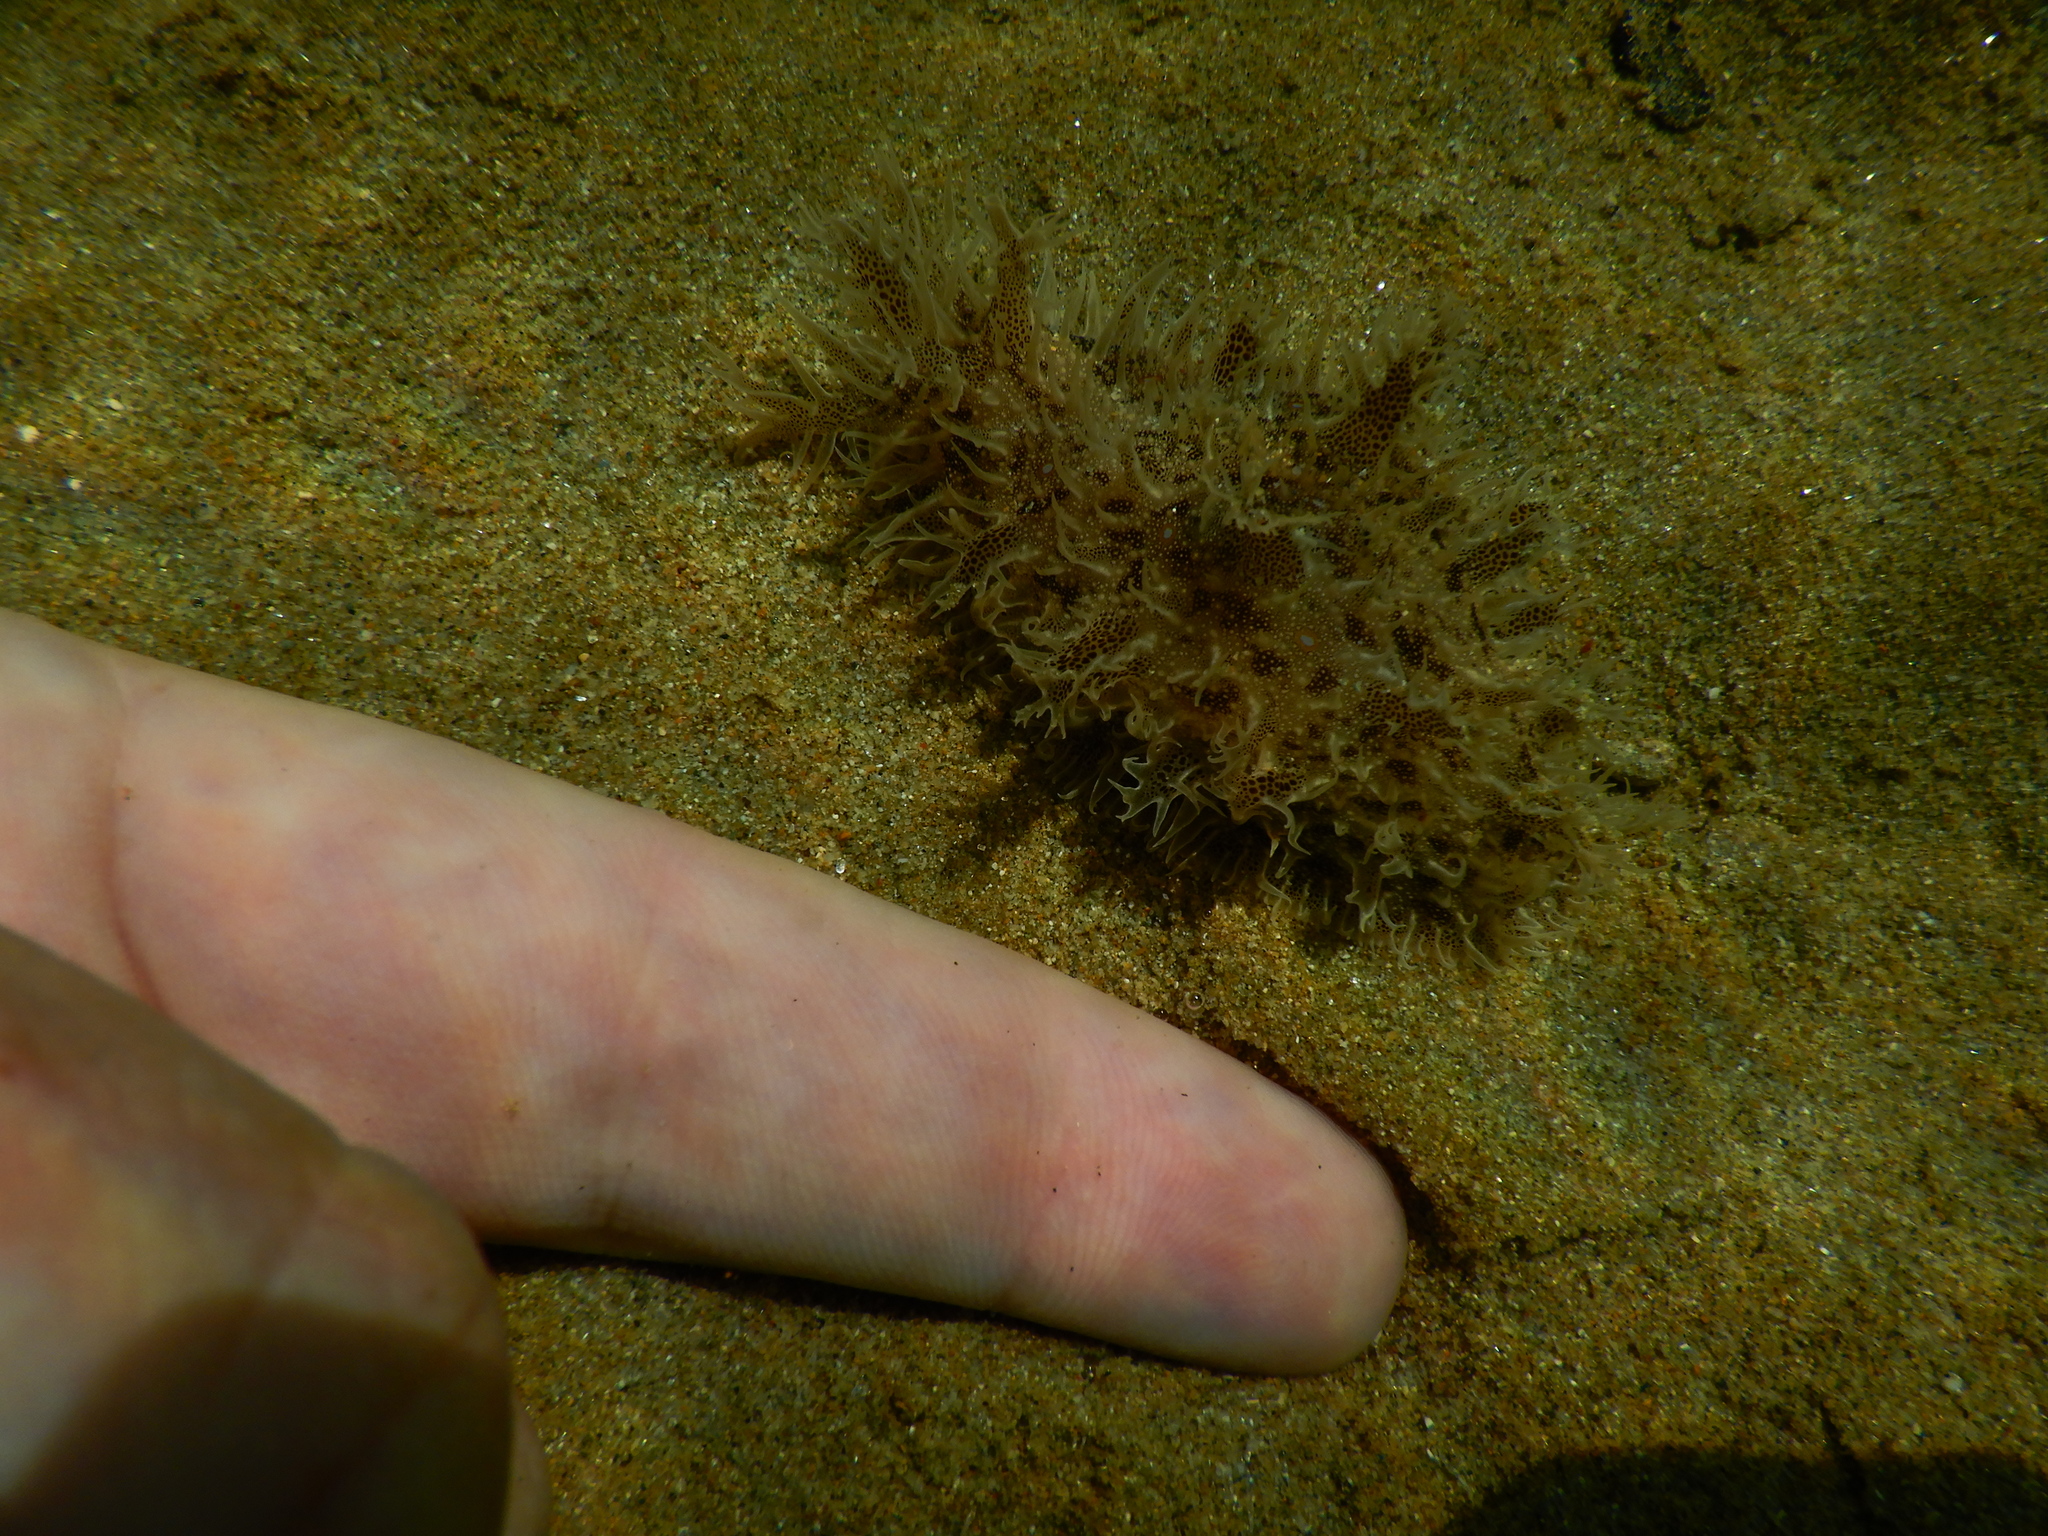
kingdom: Animalia
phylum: Mollusca
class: Gastropoda
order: Aplysiida
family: Aplysiidae
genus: Bursatella
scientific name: Bursatella leachii
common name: Shaggy sea hare
